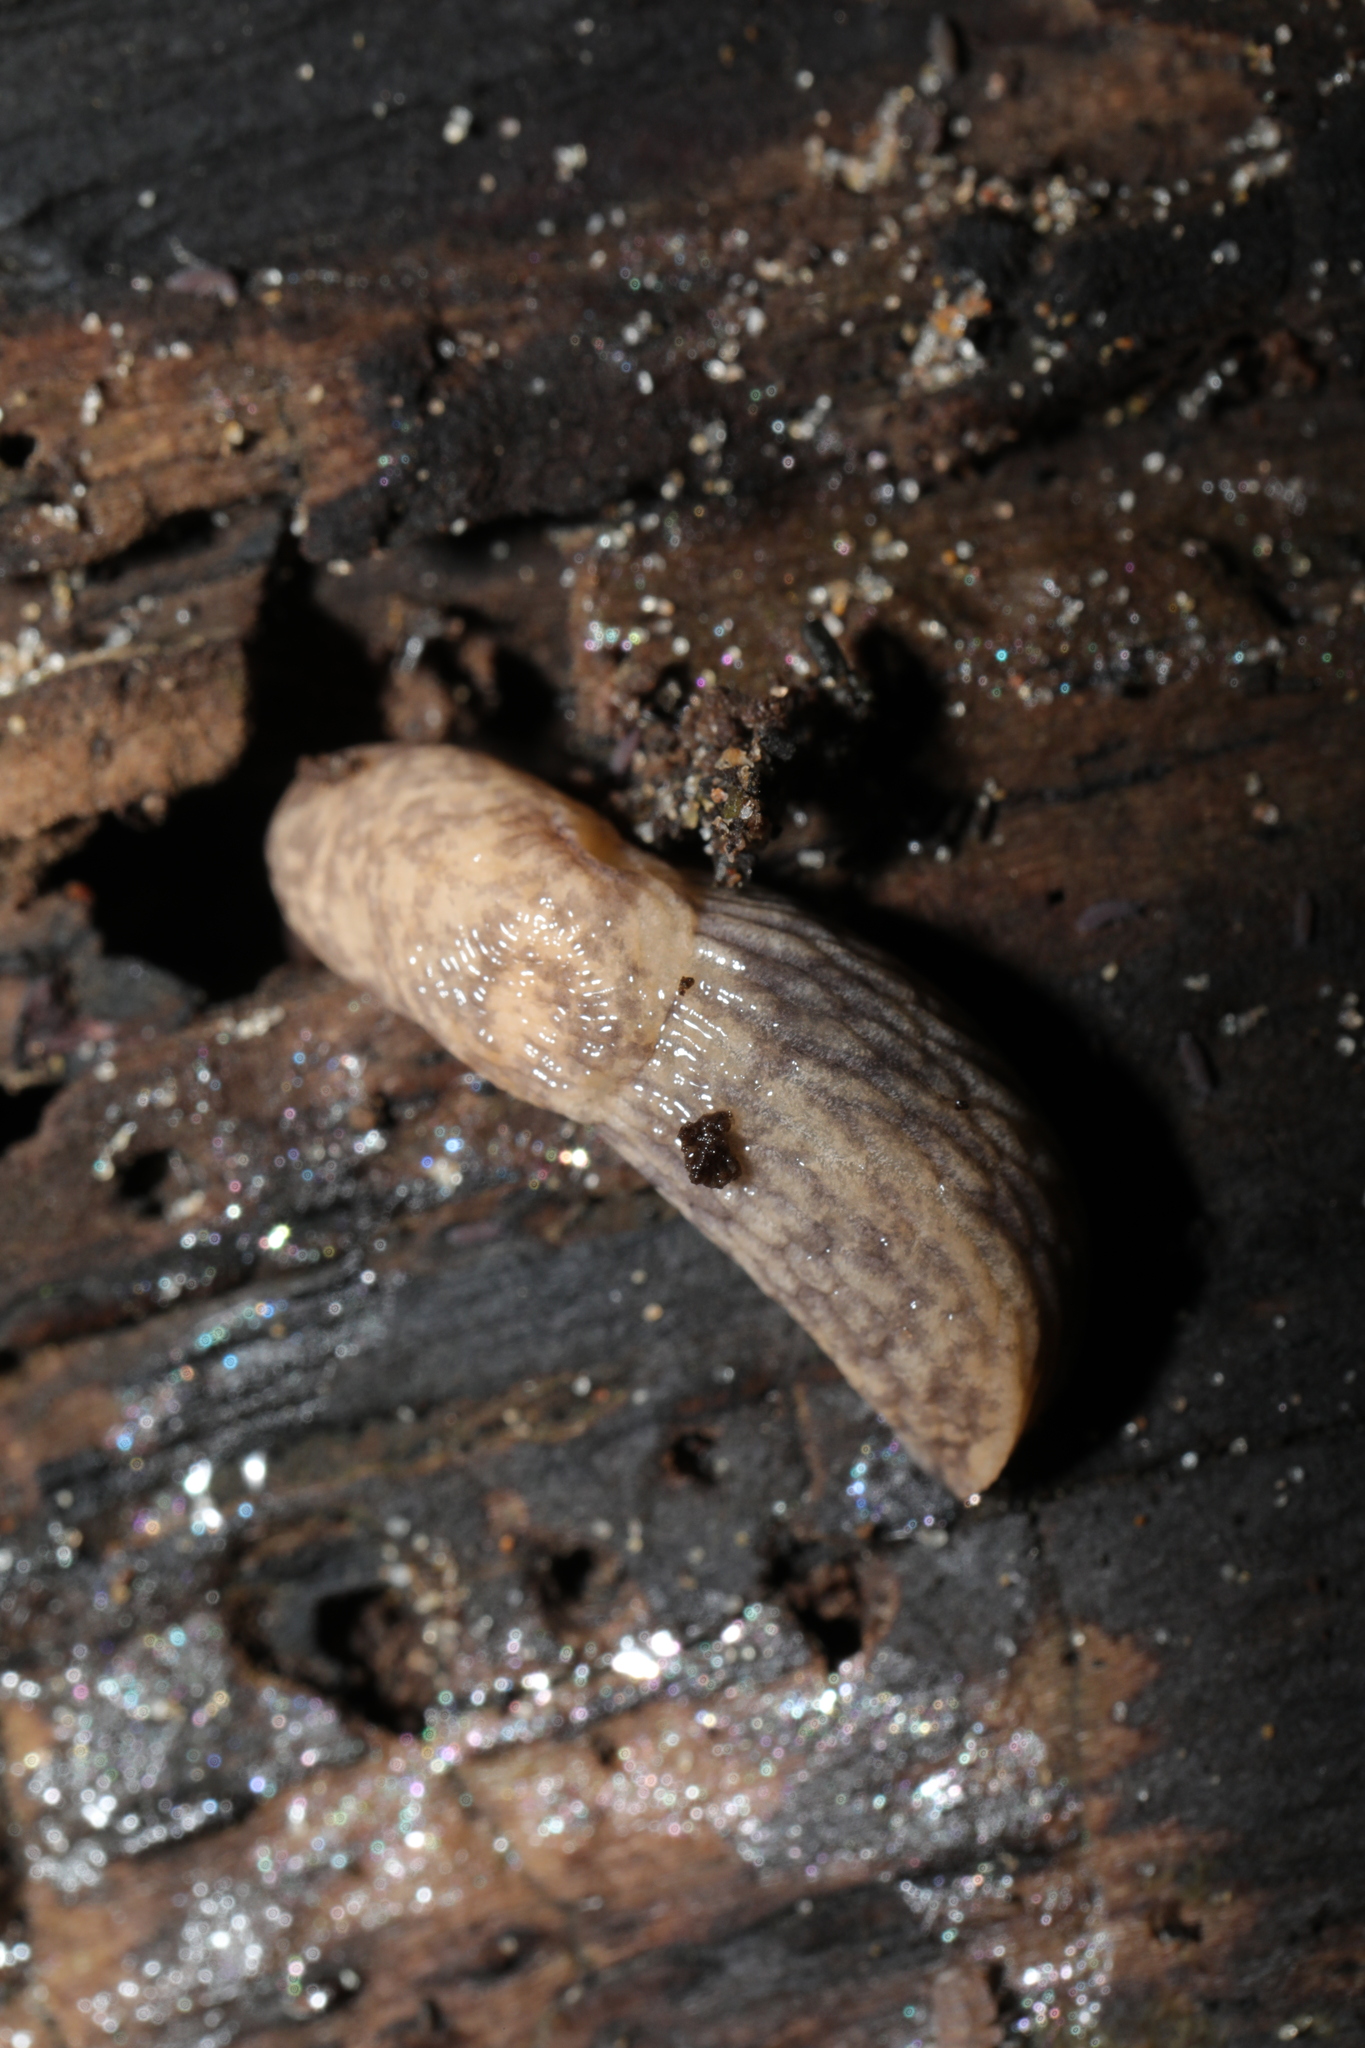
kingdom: Animalia
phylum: Mollusca
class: Gastropoda
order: Stylommatophora
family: Agriolimacidae
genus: Deroceras
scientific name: Deroceras reticulatum
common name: Gray field slug
